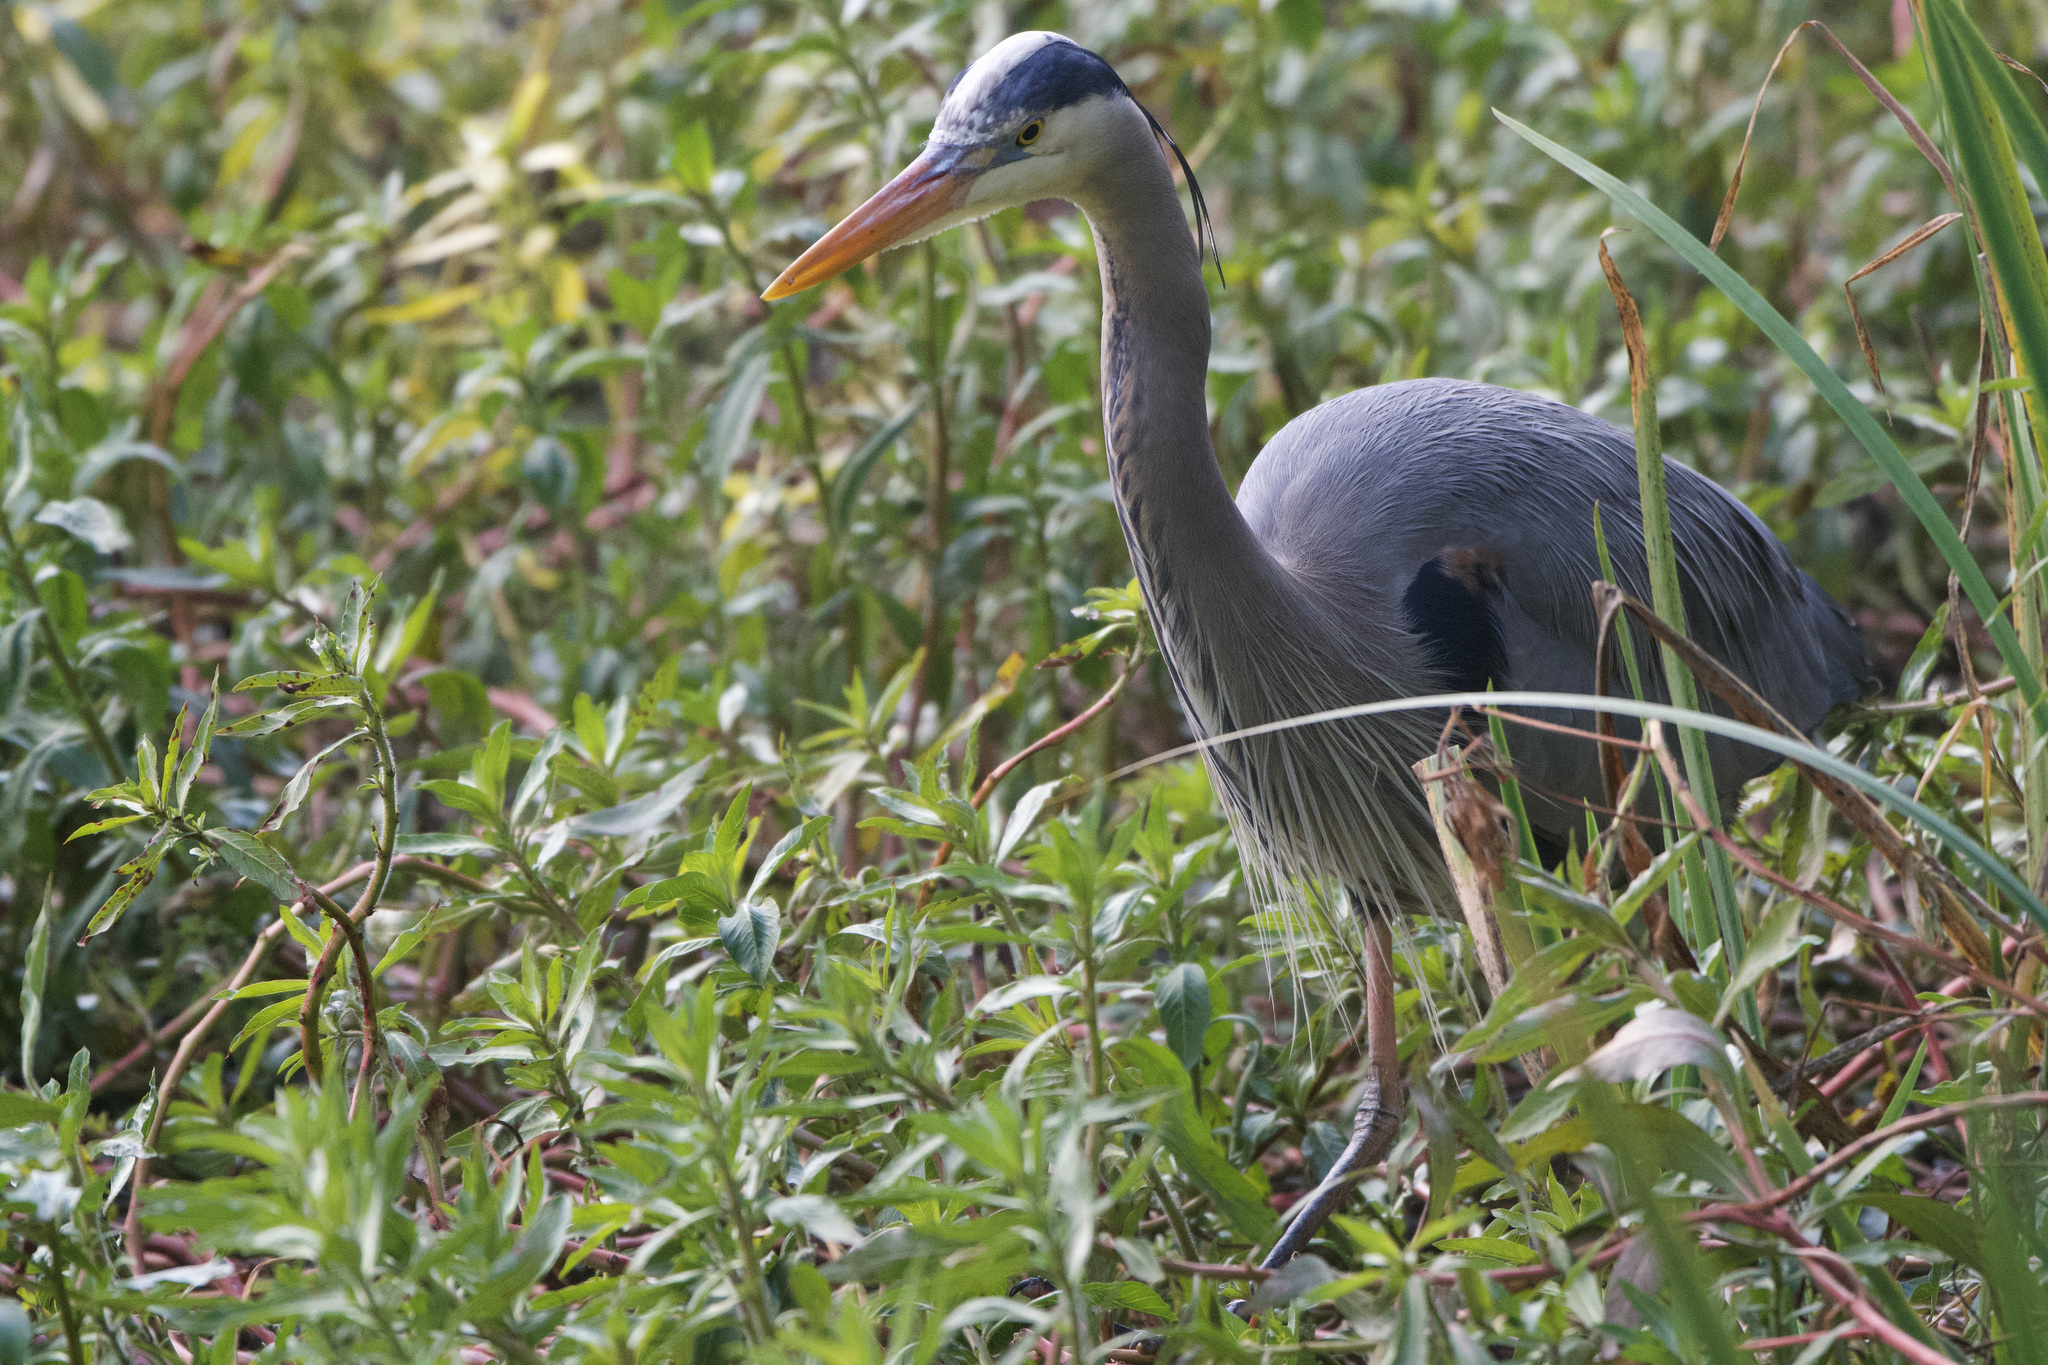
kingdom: Animalia
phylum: Chordata
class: Aves
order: Pelecaniformes
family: Ardeidae
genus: Ardea
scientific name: Ardea herodias
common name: Great blue heron
